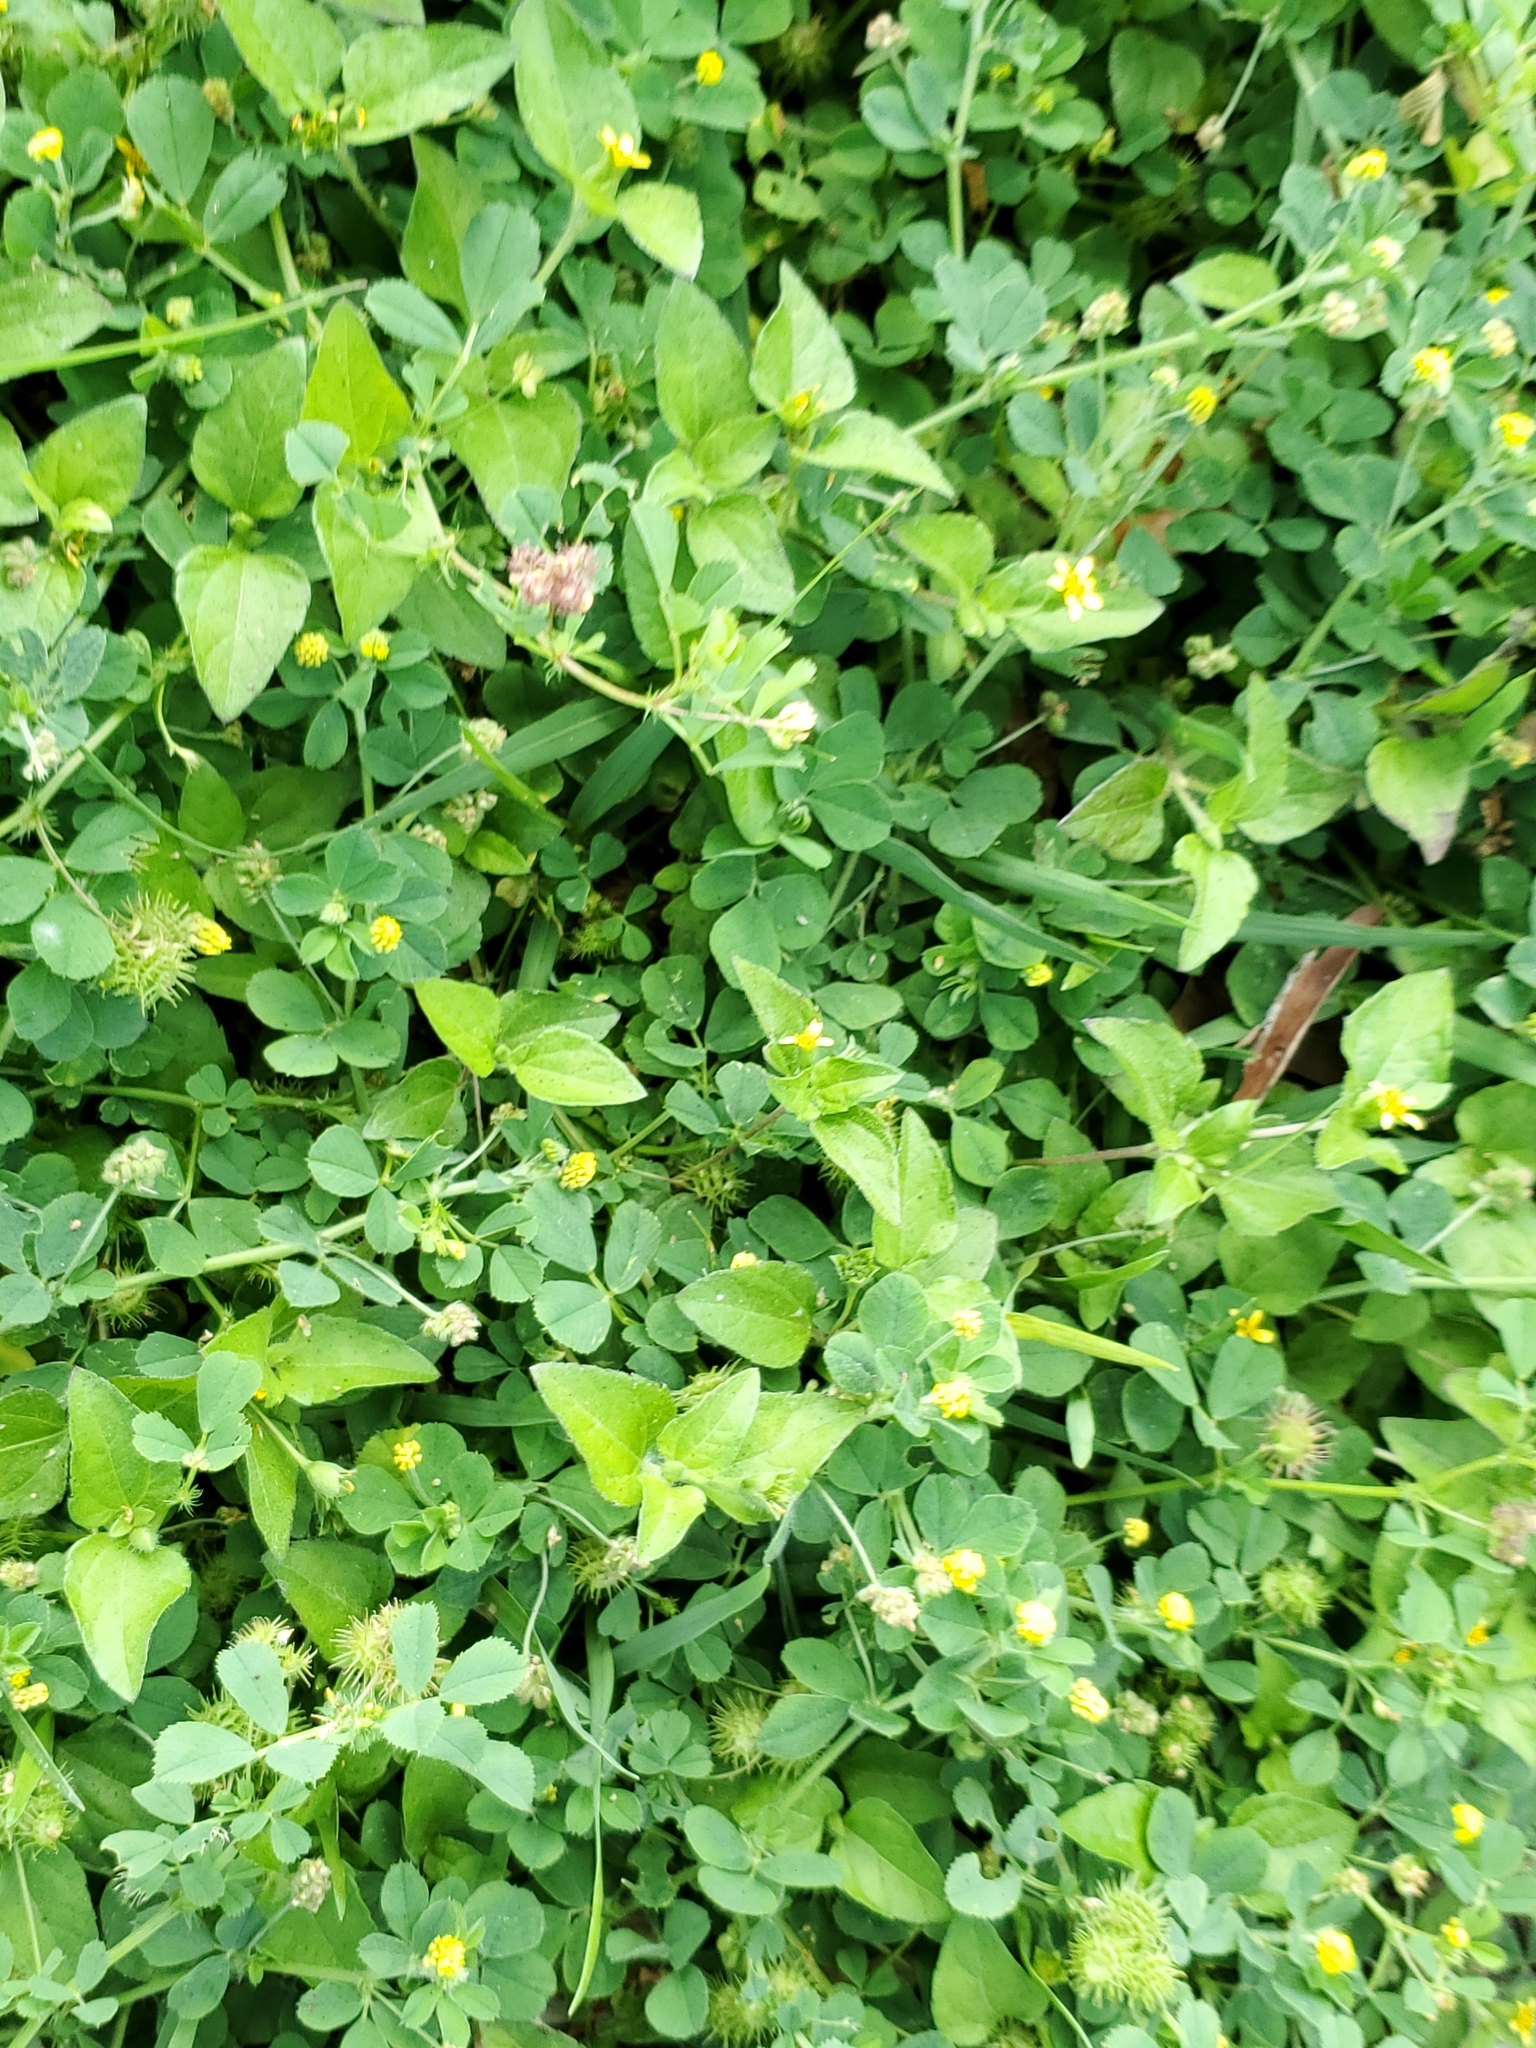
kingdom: Plantae
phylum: Tracheophyta
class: Magnoliopsida
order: Fabales
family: Fabaceae
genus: Medicago
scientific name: Medicago lupulina
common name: Black medick
